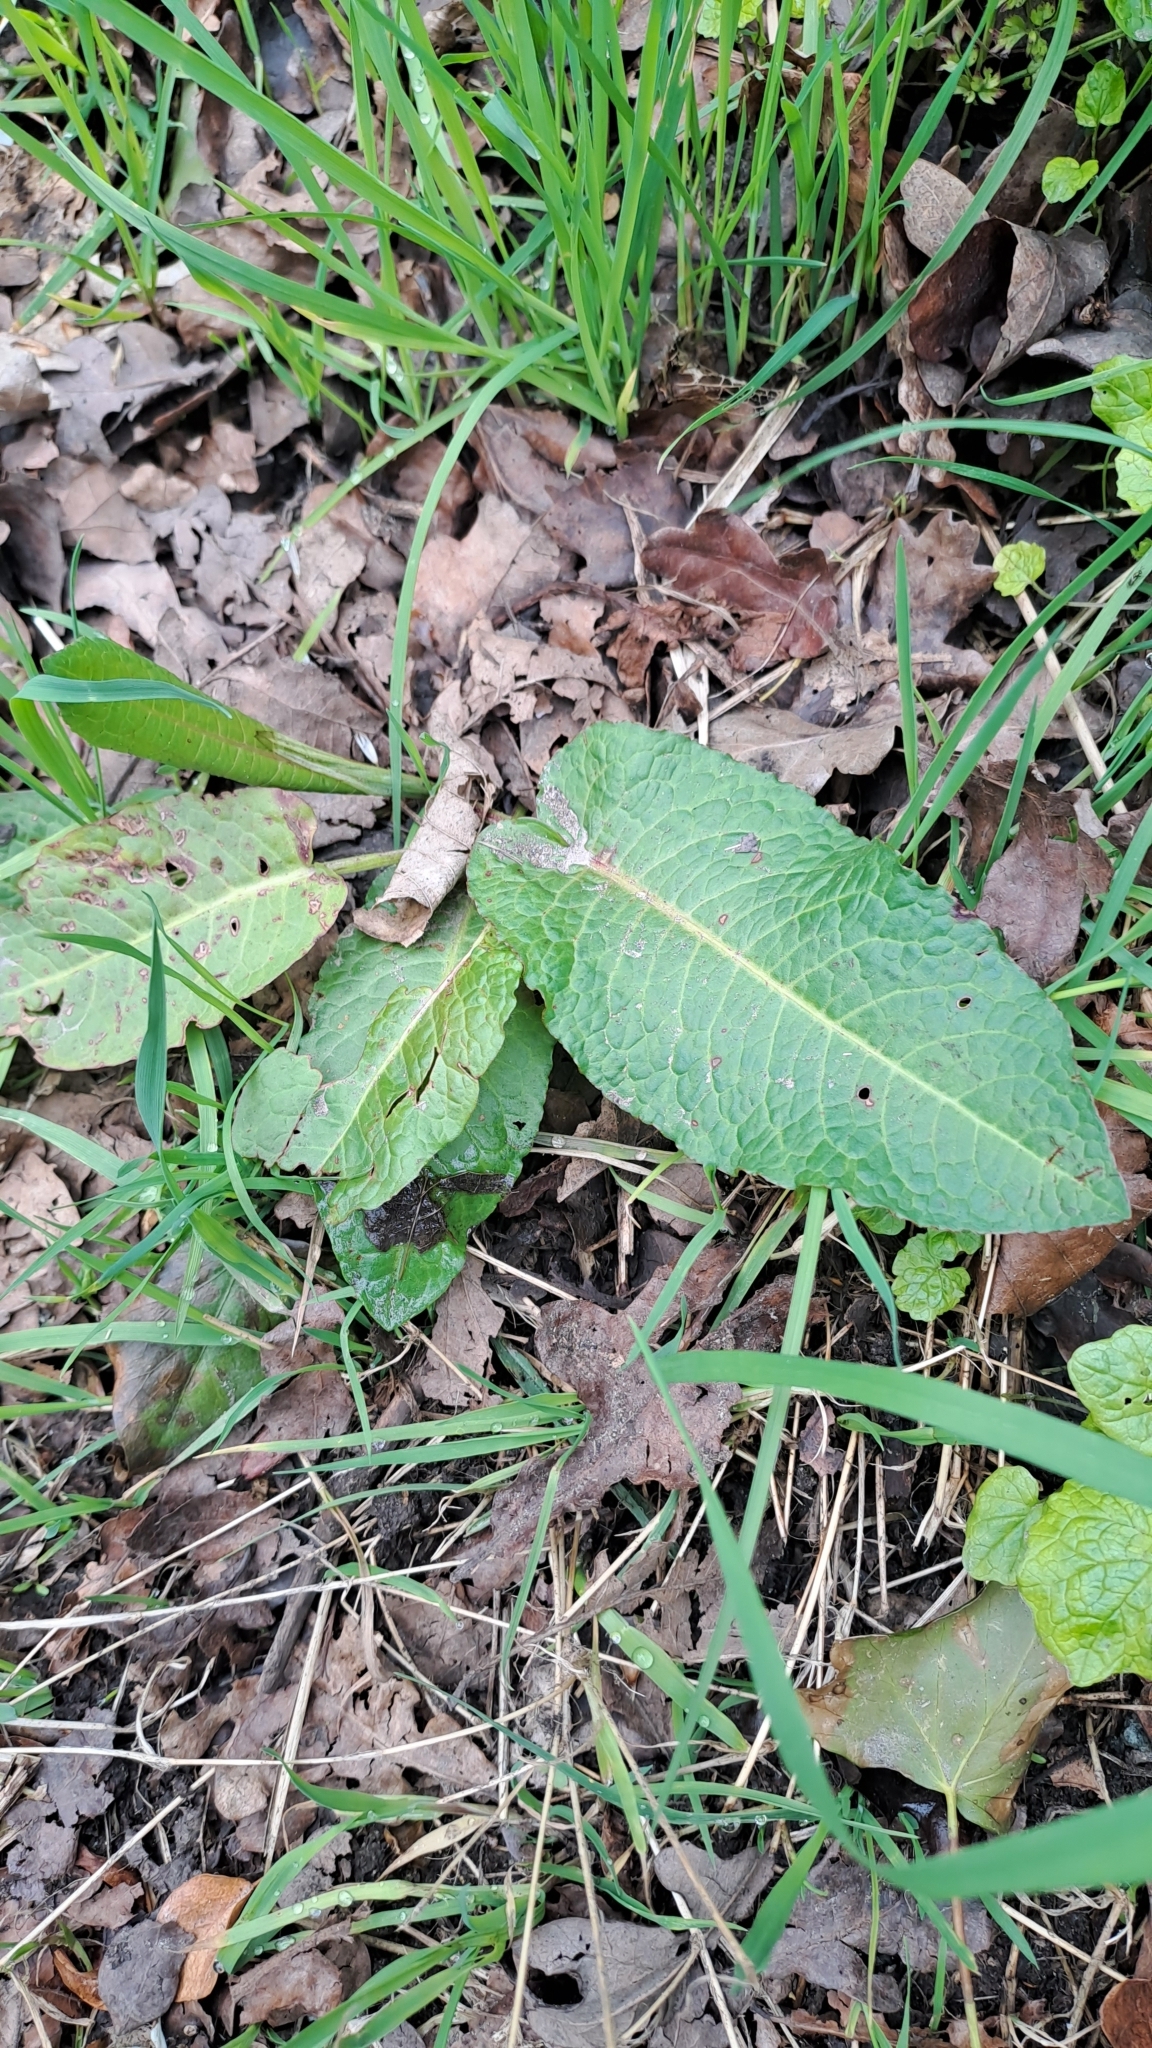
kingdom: Plantae
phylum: Tracheophyta
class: Magnoliopsida
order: Caryophyllales
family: Polygonaceae
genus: Rumex
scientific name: Rumex obtusifolius
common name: Bitter dock
